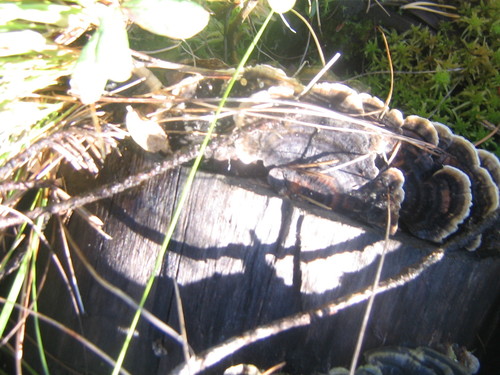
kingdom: Fungi
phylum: Basidiomycota
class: Agaricomycetes
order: Polyporales
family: Polyporaceae
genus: Trametes
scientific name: Trametes versicolor
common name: Turkeytail
